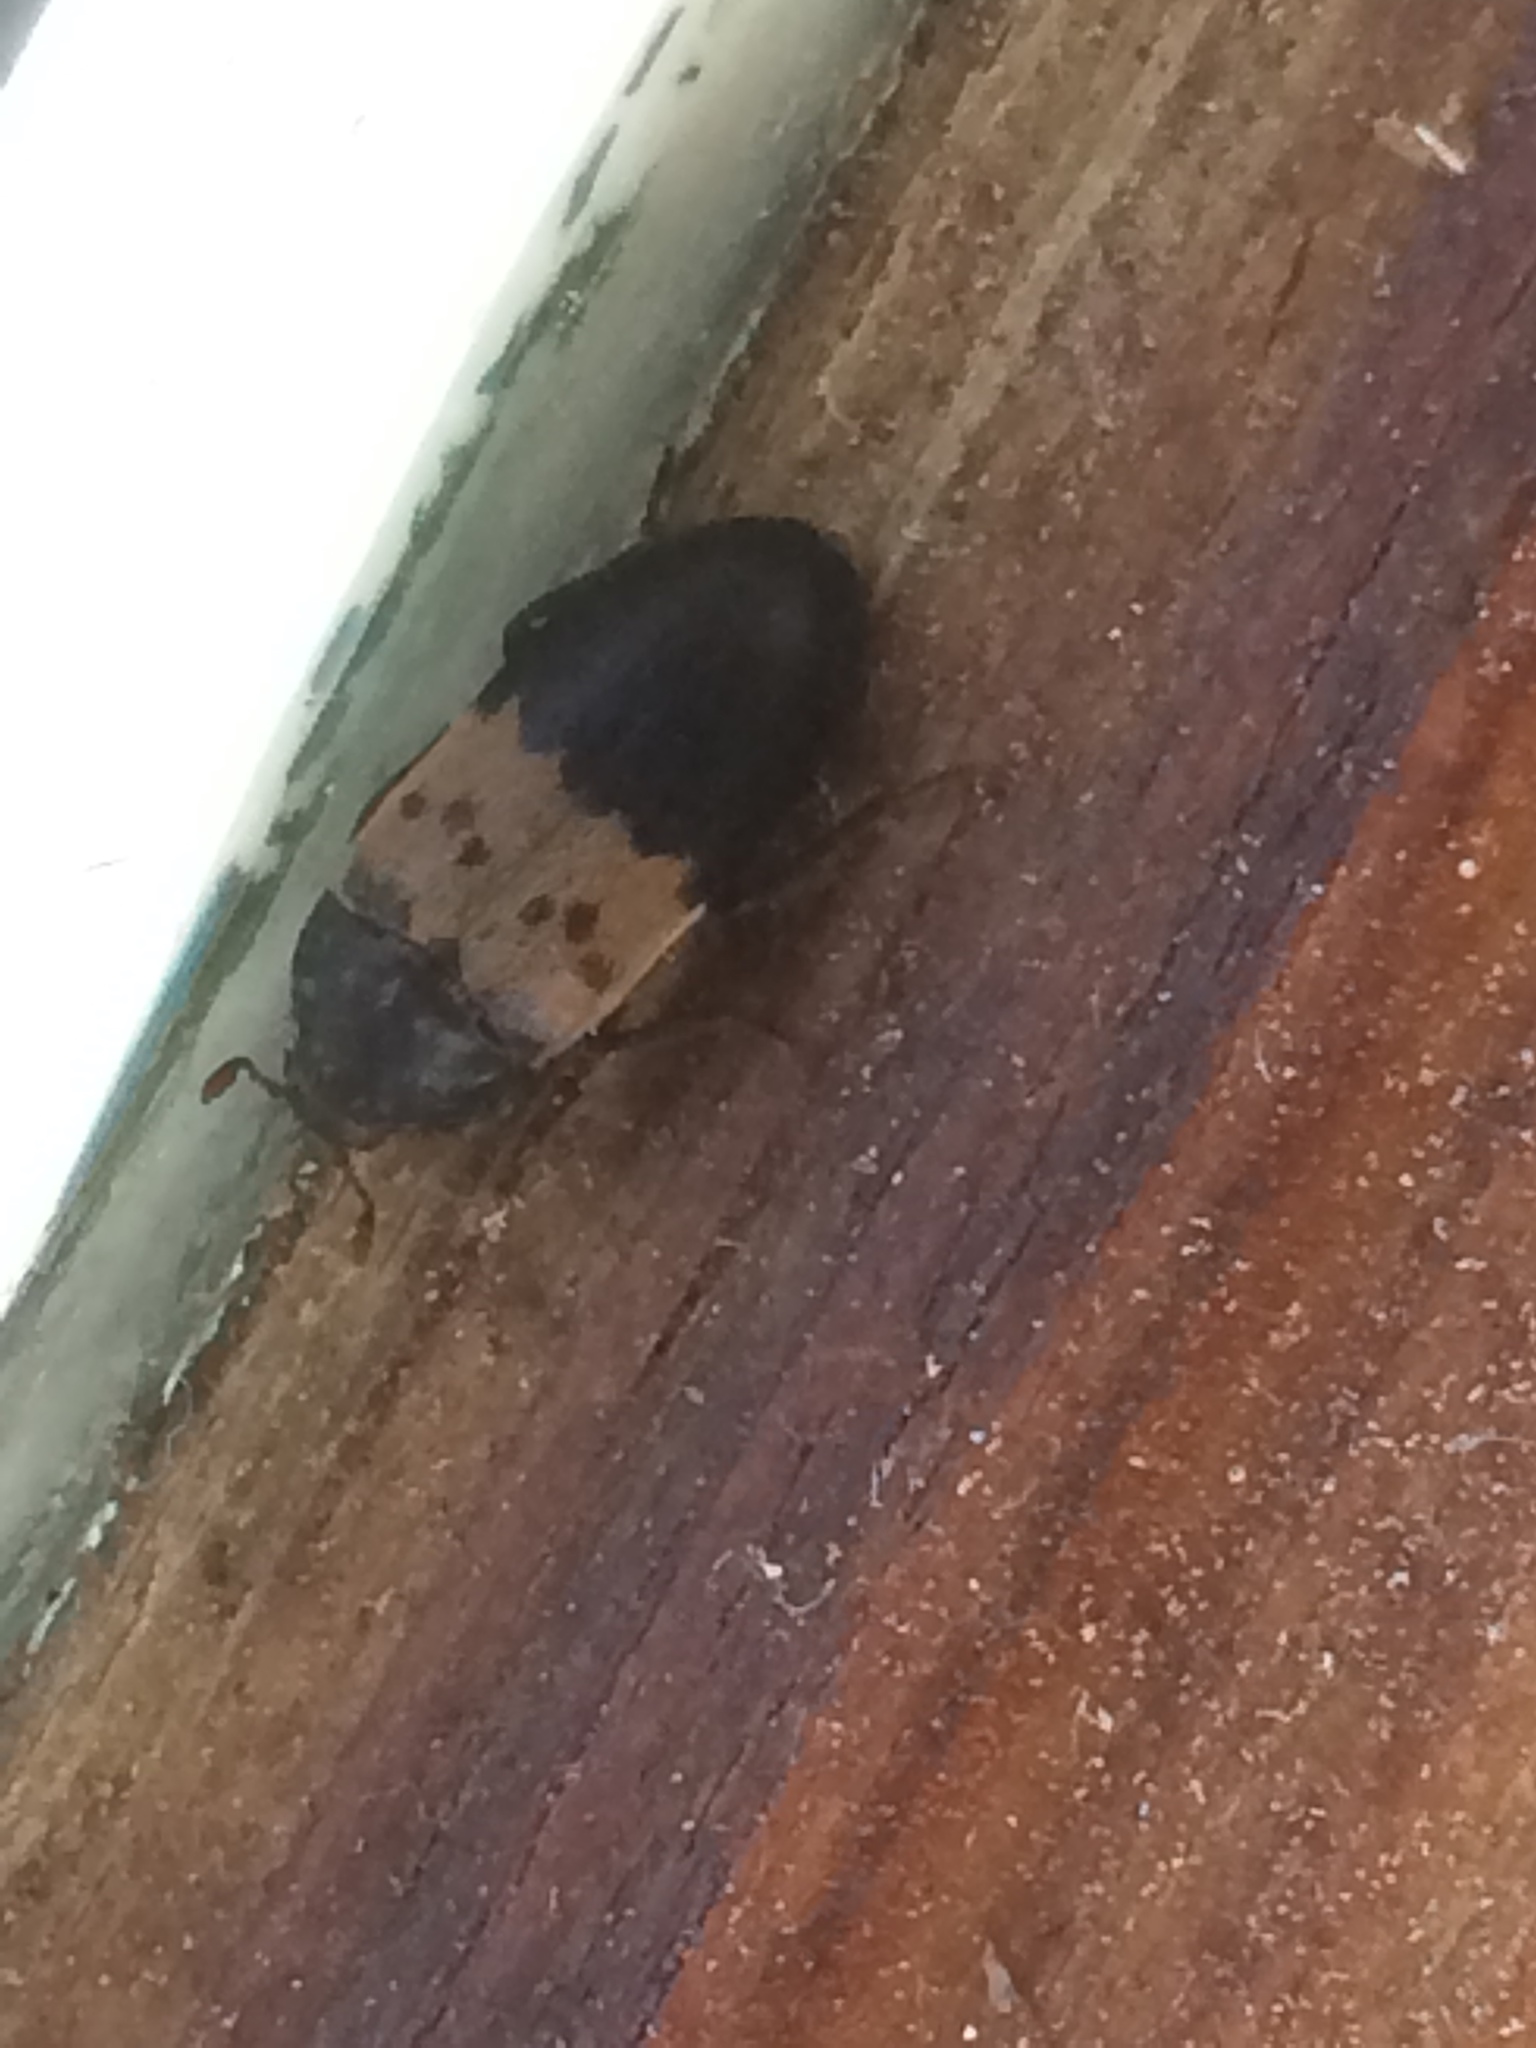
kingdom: Animalia
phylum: Arthropoda
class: Insecta
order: Coleoptera
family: Dermestidae
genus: Dermestes
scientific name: Dermestes lardarius
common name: Larder beetle
